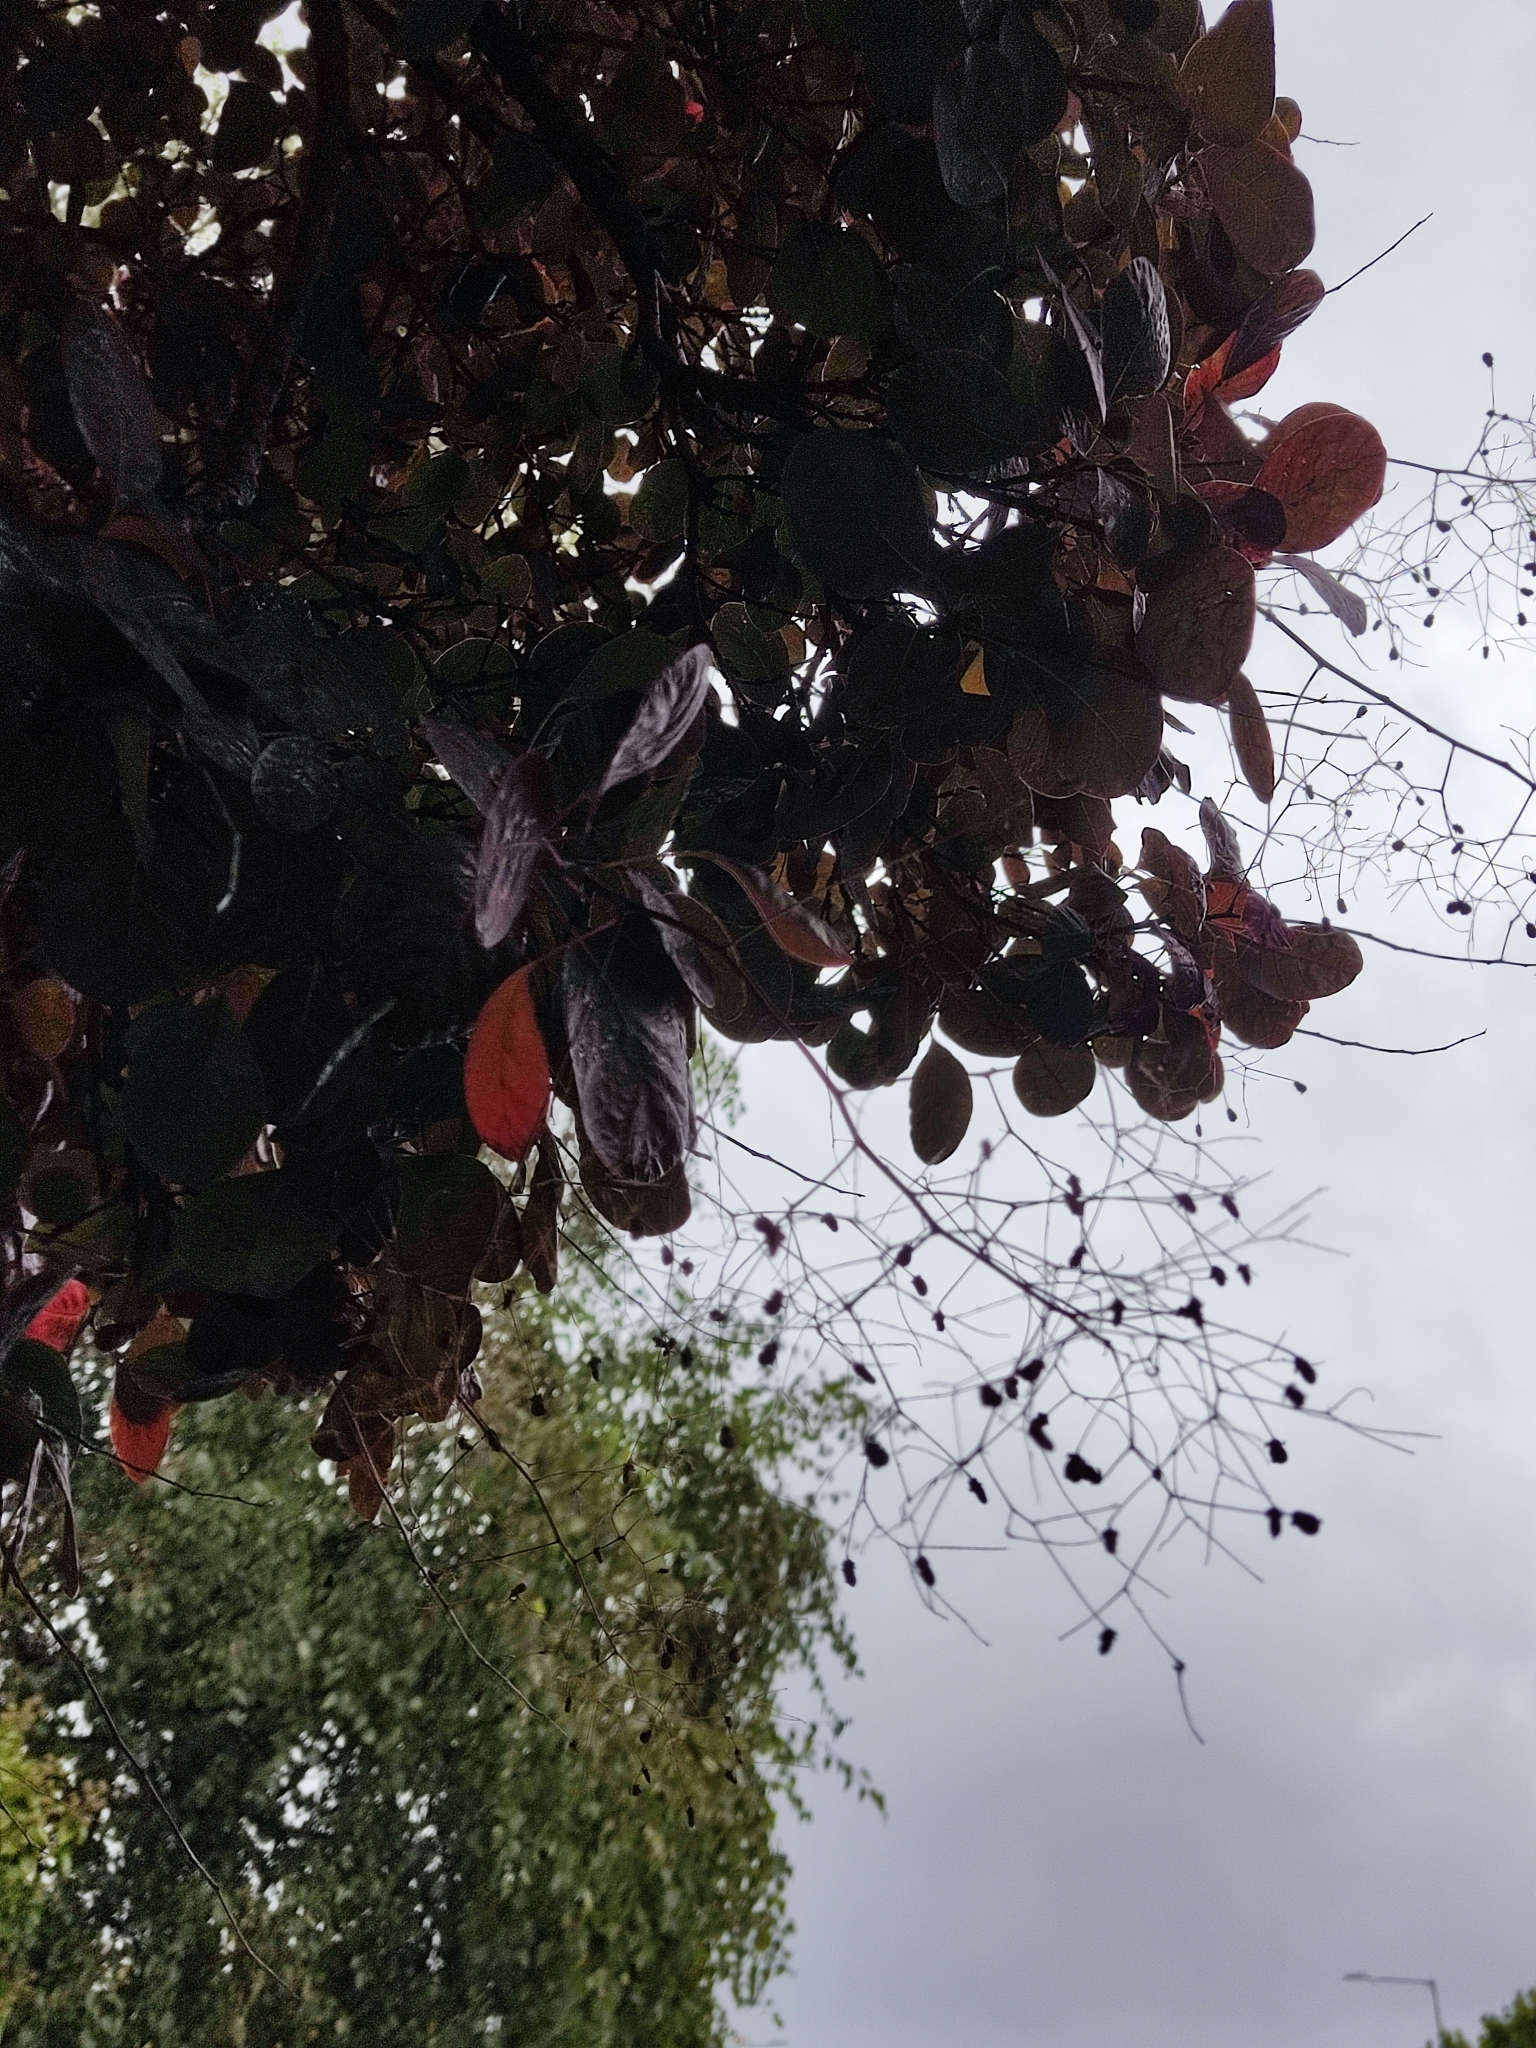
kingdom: Plantae
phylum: Tracheophyta
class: Magnoliopsida
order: Sapindales
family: Anacardiaceae
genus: Cotinus
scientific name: Cotinus coggygria
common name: Smoke-tree
